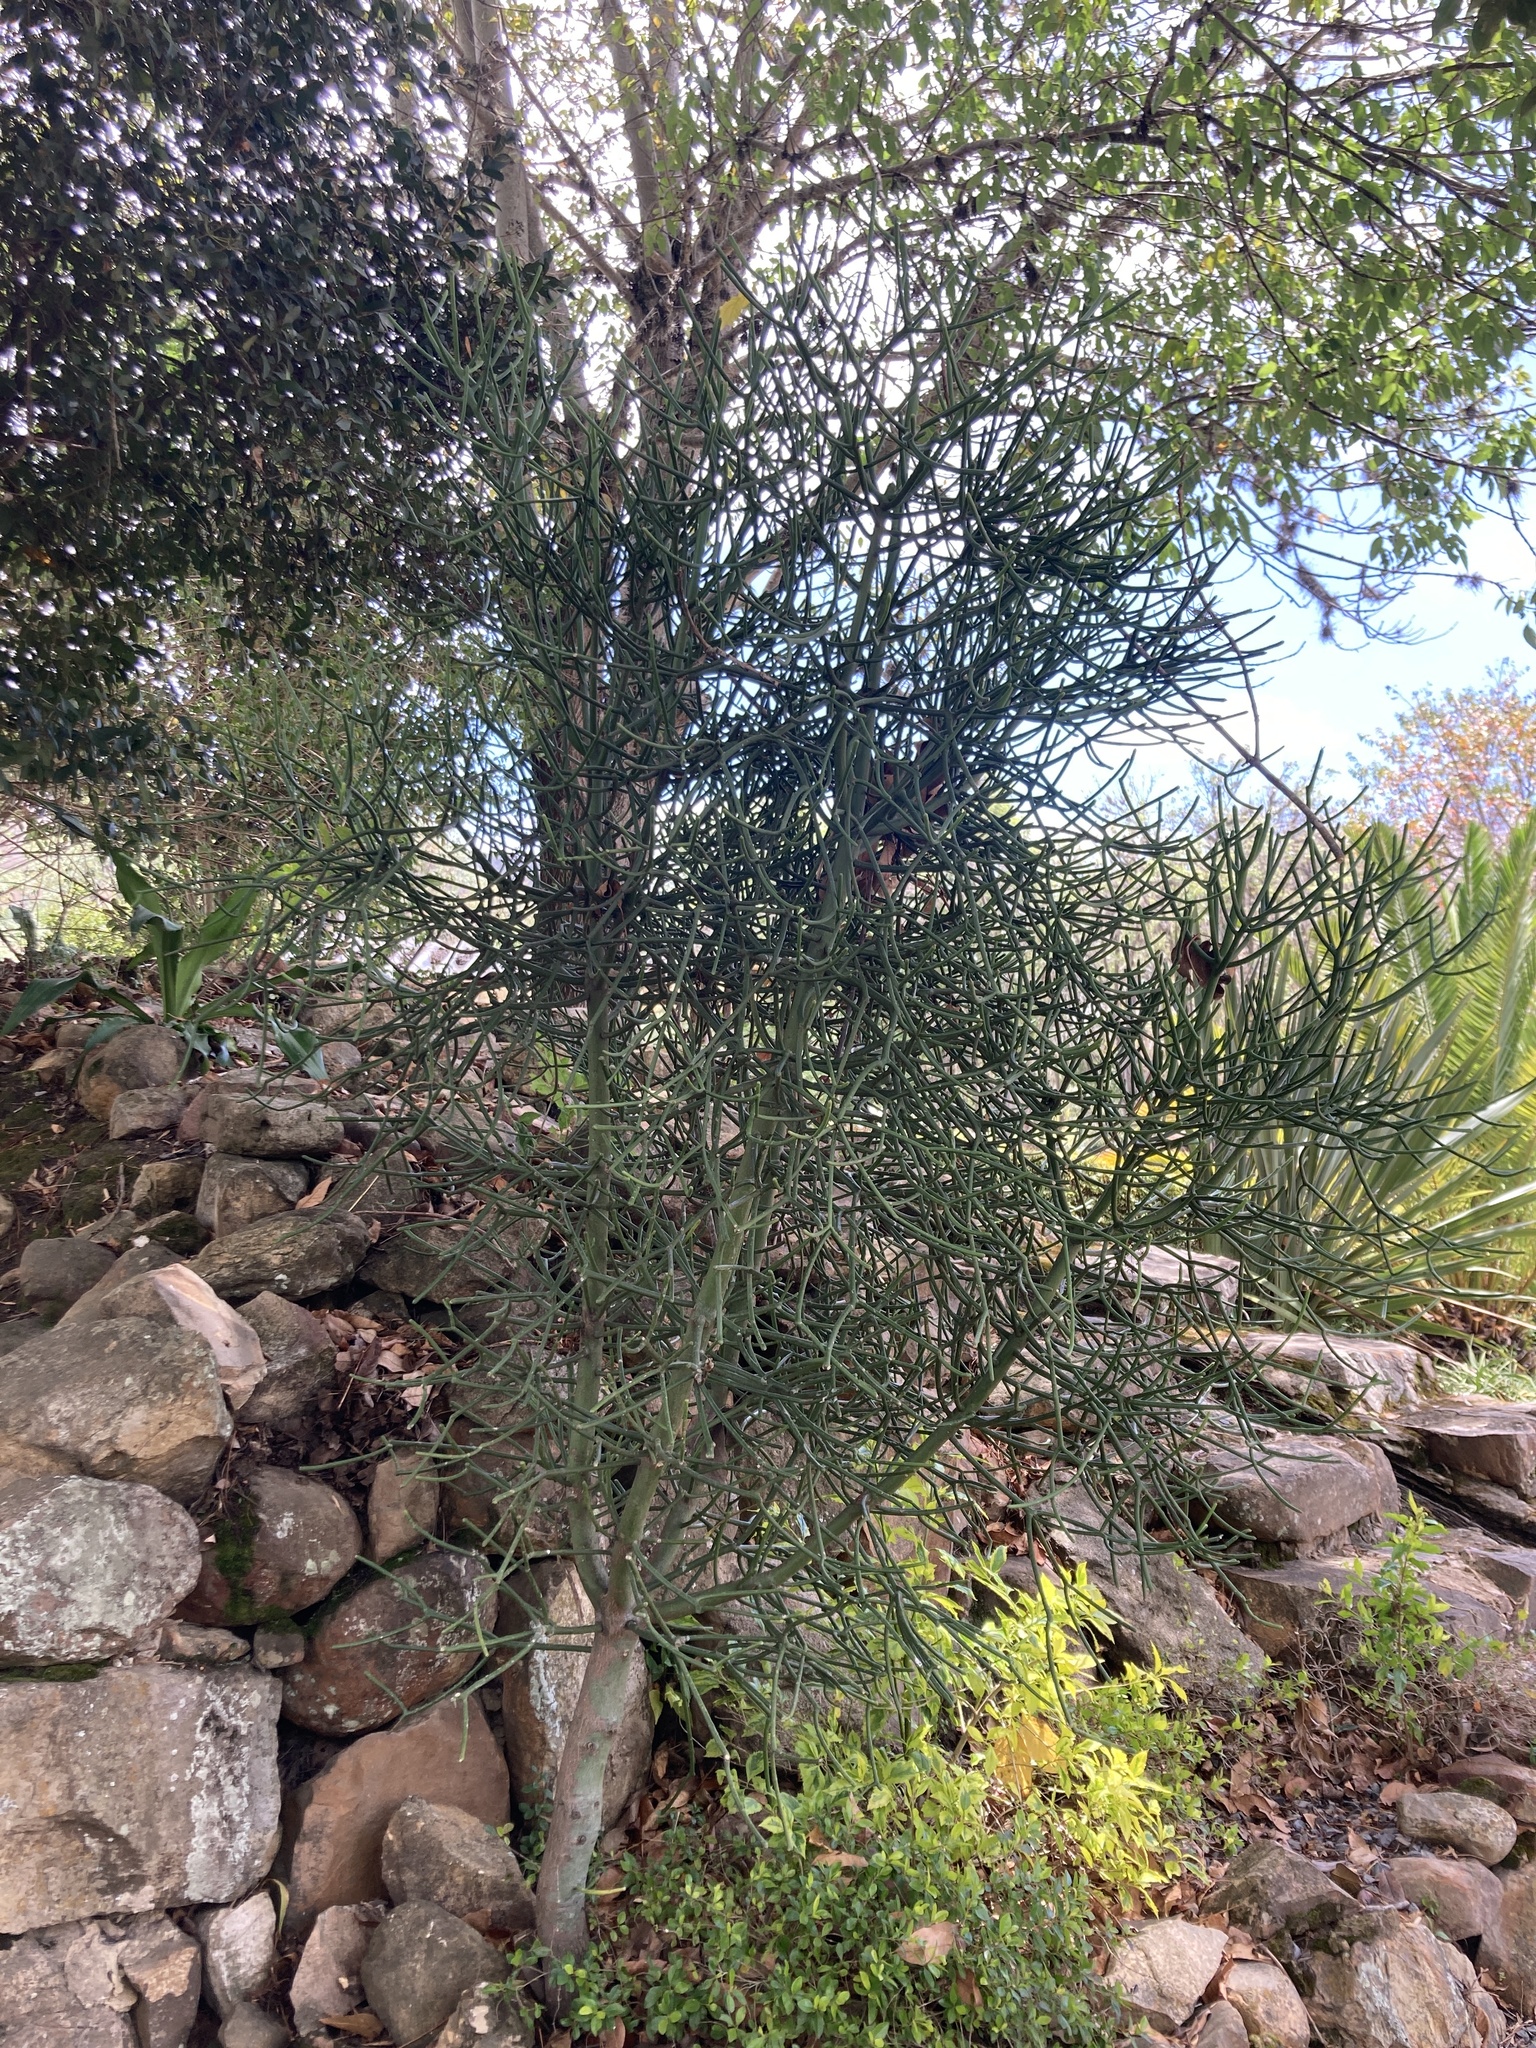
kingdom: Plantae
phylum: Tracheophyta
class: Magnoliopsida
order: Malpighiales
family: Euphorbiaceae
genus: Euphorbia
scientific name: Euphorbia tirucalli
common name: Indiantree spurge
